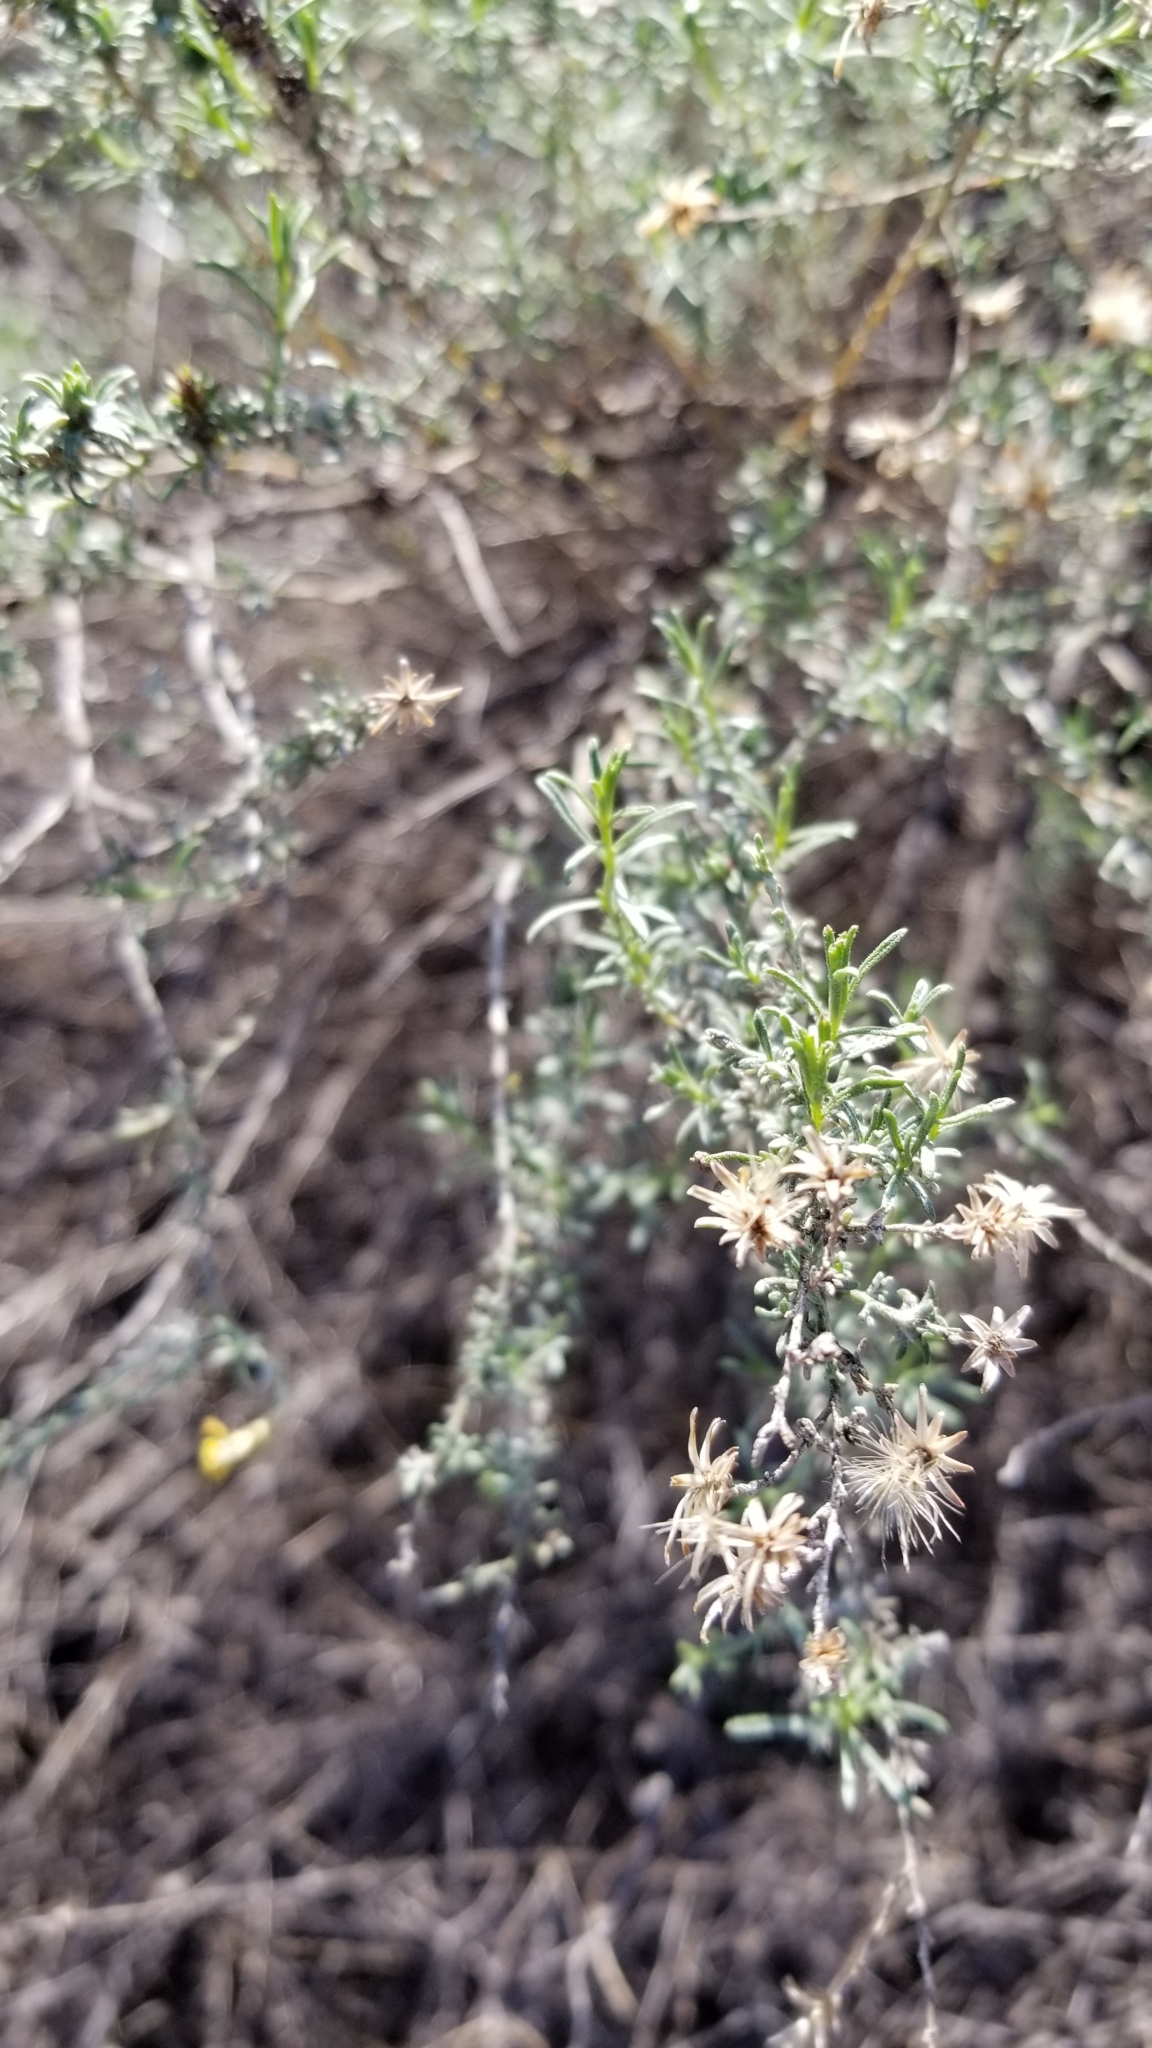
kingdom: Plantae
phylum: Tracheophyta
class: Magnoliopsida
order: Asterales
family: Asteraceae
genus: Ericameria
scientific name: Ericameria palmeri
